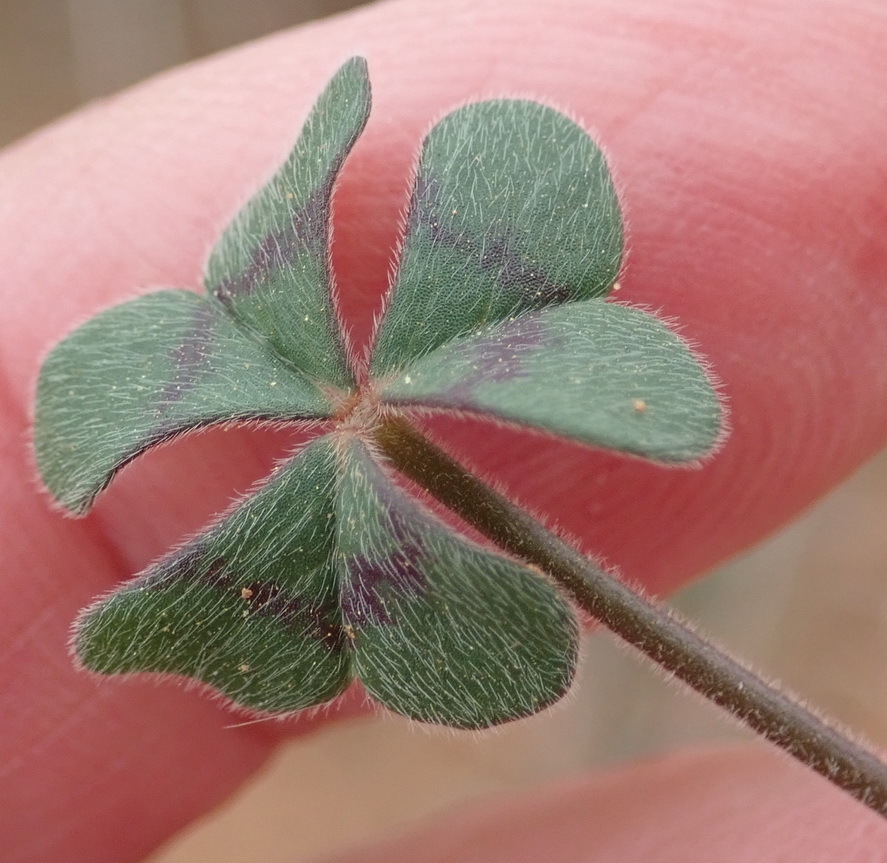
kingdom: Plantae
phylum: Tracheophyta
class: Magnoliopsida
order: Oxalidales
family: Oxalidaceae
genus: Oxalis
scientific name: Oxalis pes-caprae
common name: Bermuda-buttercup
